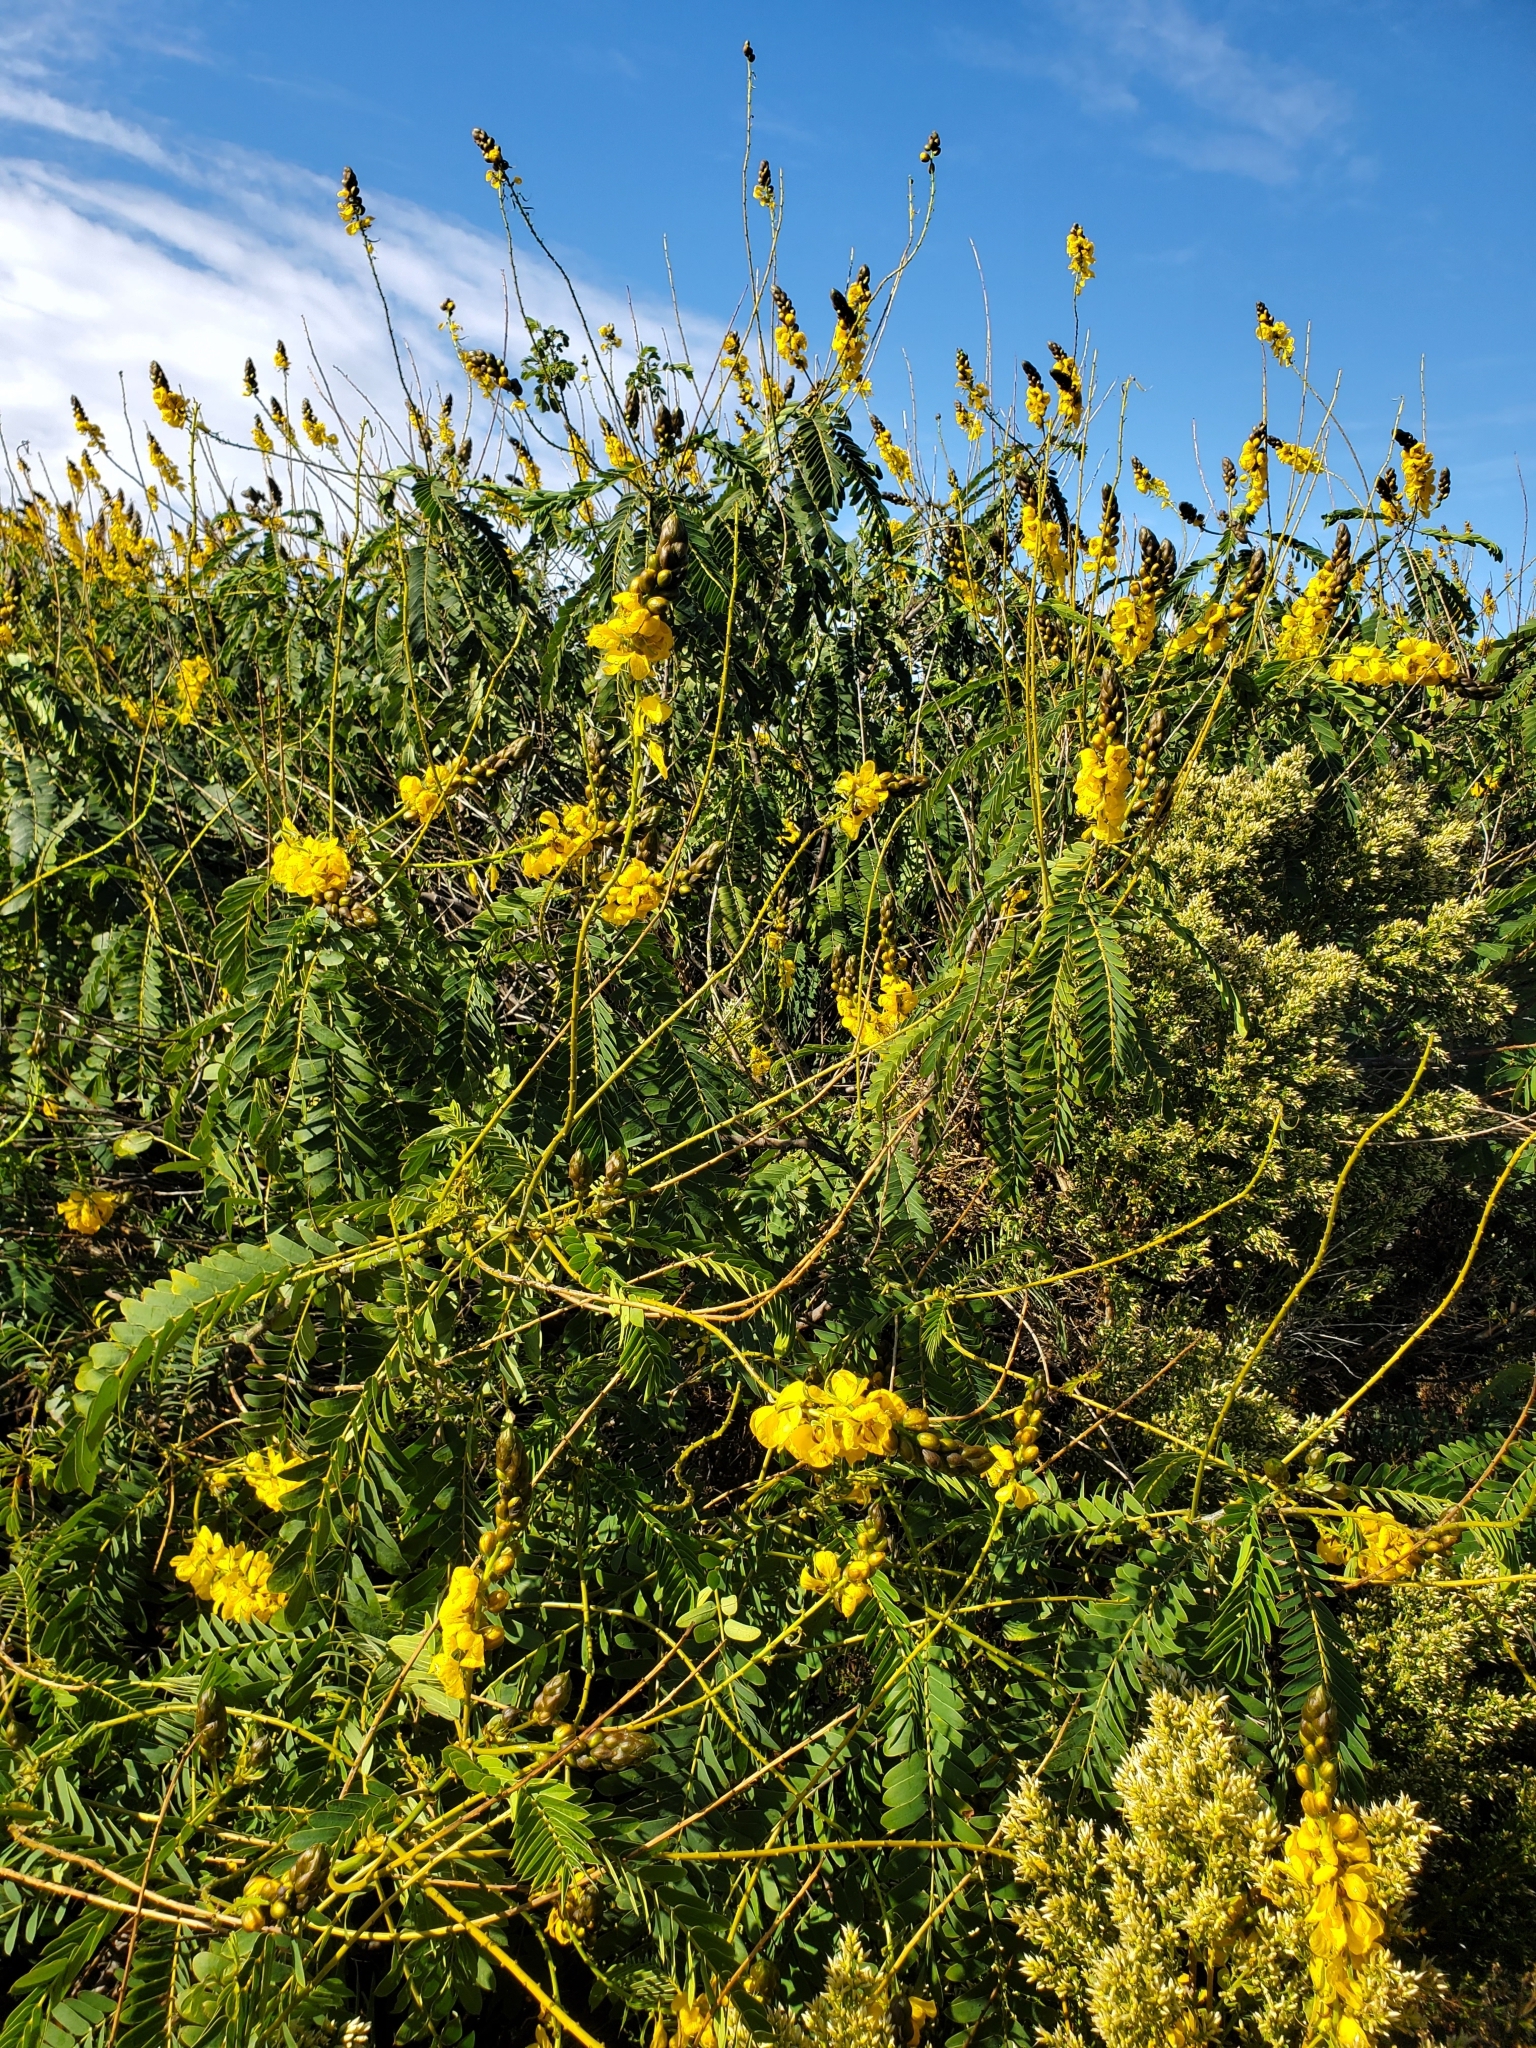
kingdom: Plantae
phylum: Tracheophyta
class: Magnoliopsida
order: Fabales
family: Fabaceae
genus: Senna
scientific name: Senna didymobotrya
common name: African senna
